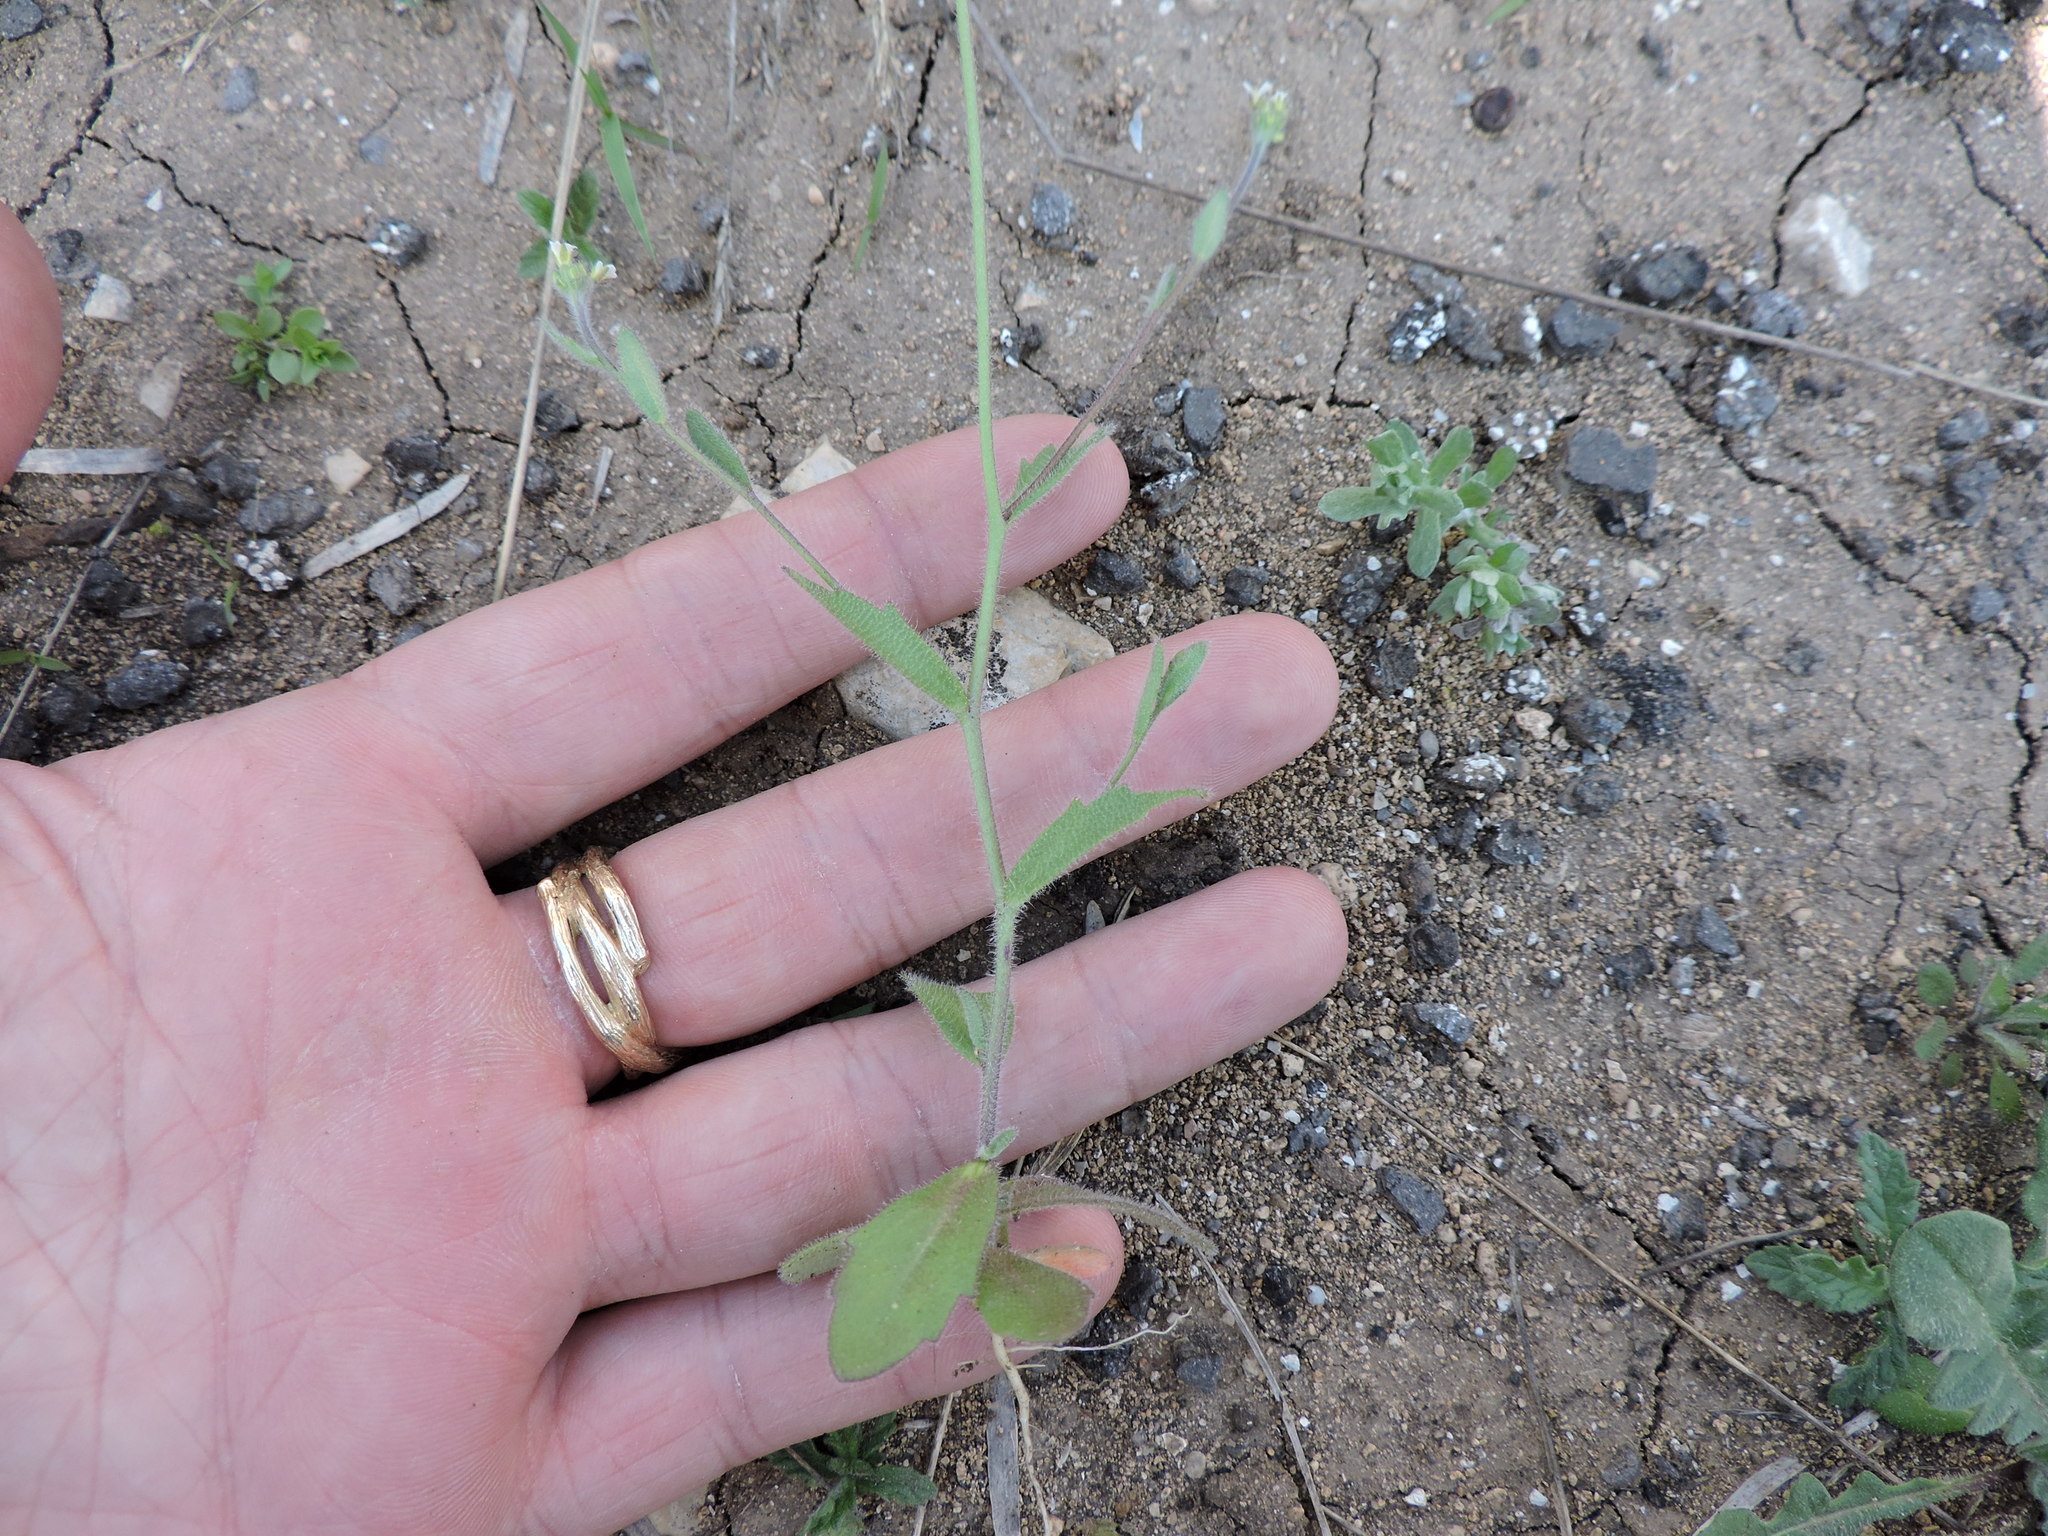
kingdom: Plantae
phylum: Tracheophyta
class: Magnoliopsida
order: Brassicales
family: Brassicaceae
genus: Tomostima
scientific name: Tomostima platycarpa
